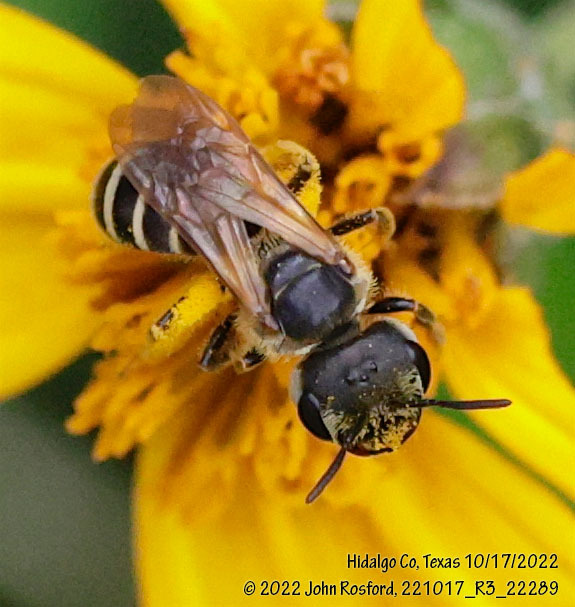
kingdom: Animalia
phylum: Arthropoda
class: Insecta
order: Hymenoptera
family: Halictidae
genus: Halictus
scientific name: Halictus ligatus
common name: Ligated furrow bee
